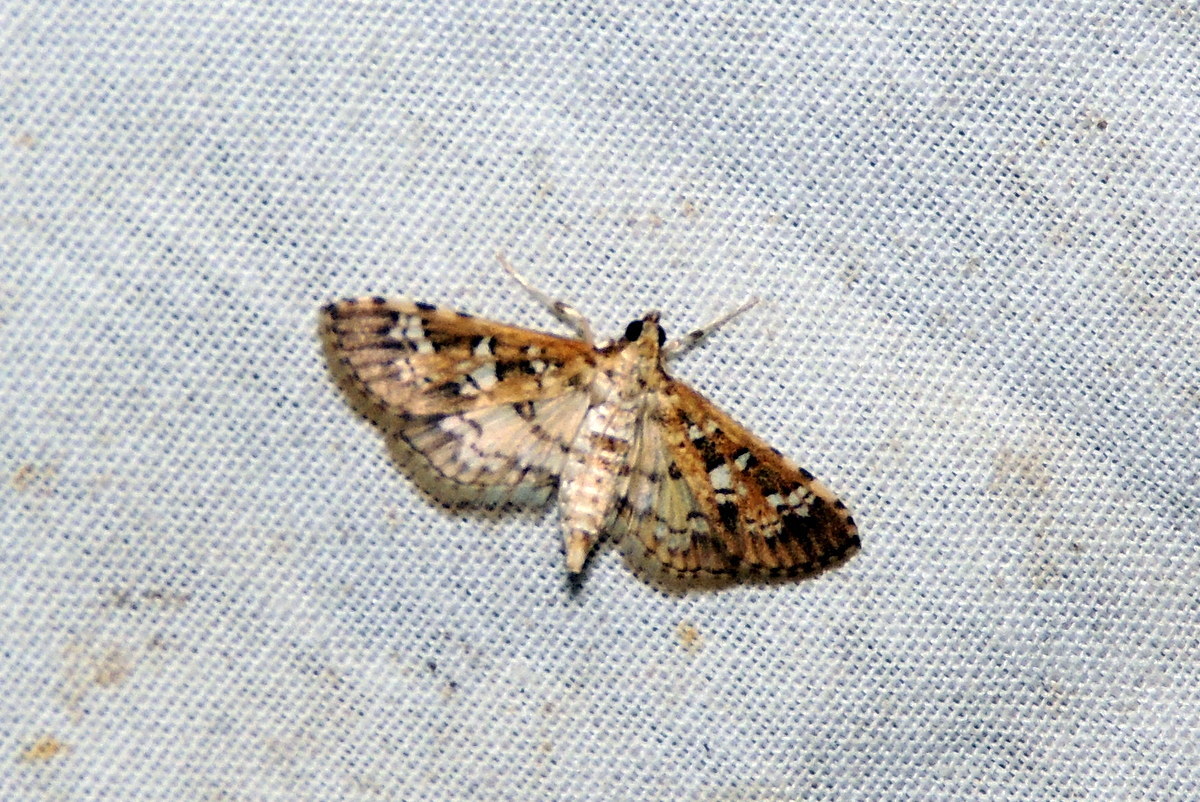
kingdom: Animalia
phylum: Arthropoda
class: Insecta
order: Lepidoptera
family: Crambidae
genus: Samea
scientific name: Samea multiplicalis
